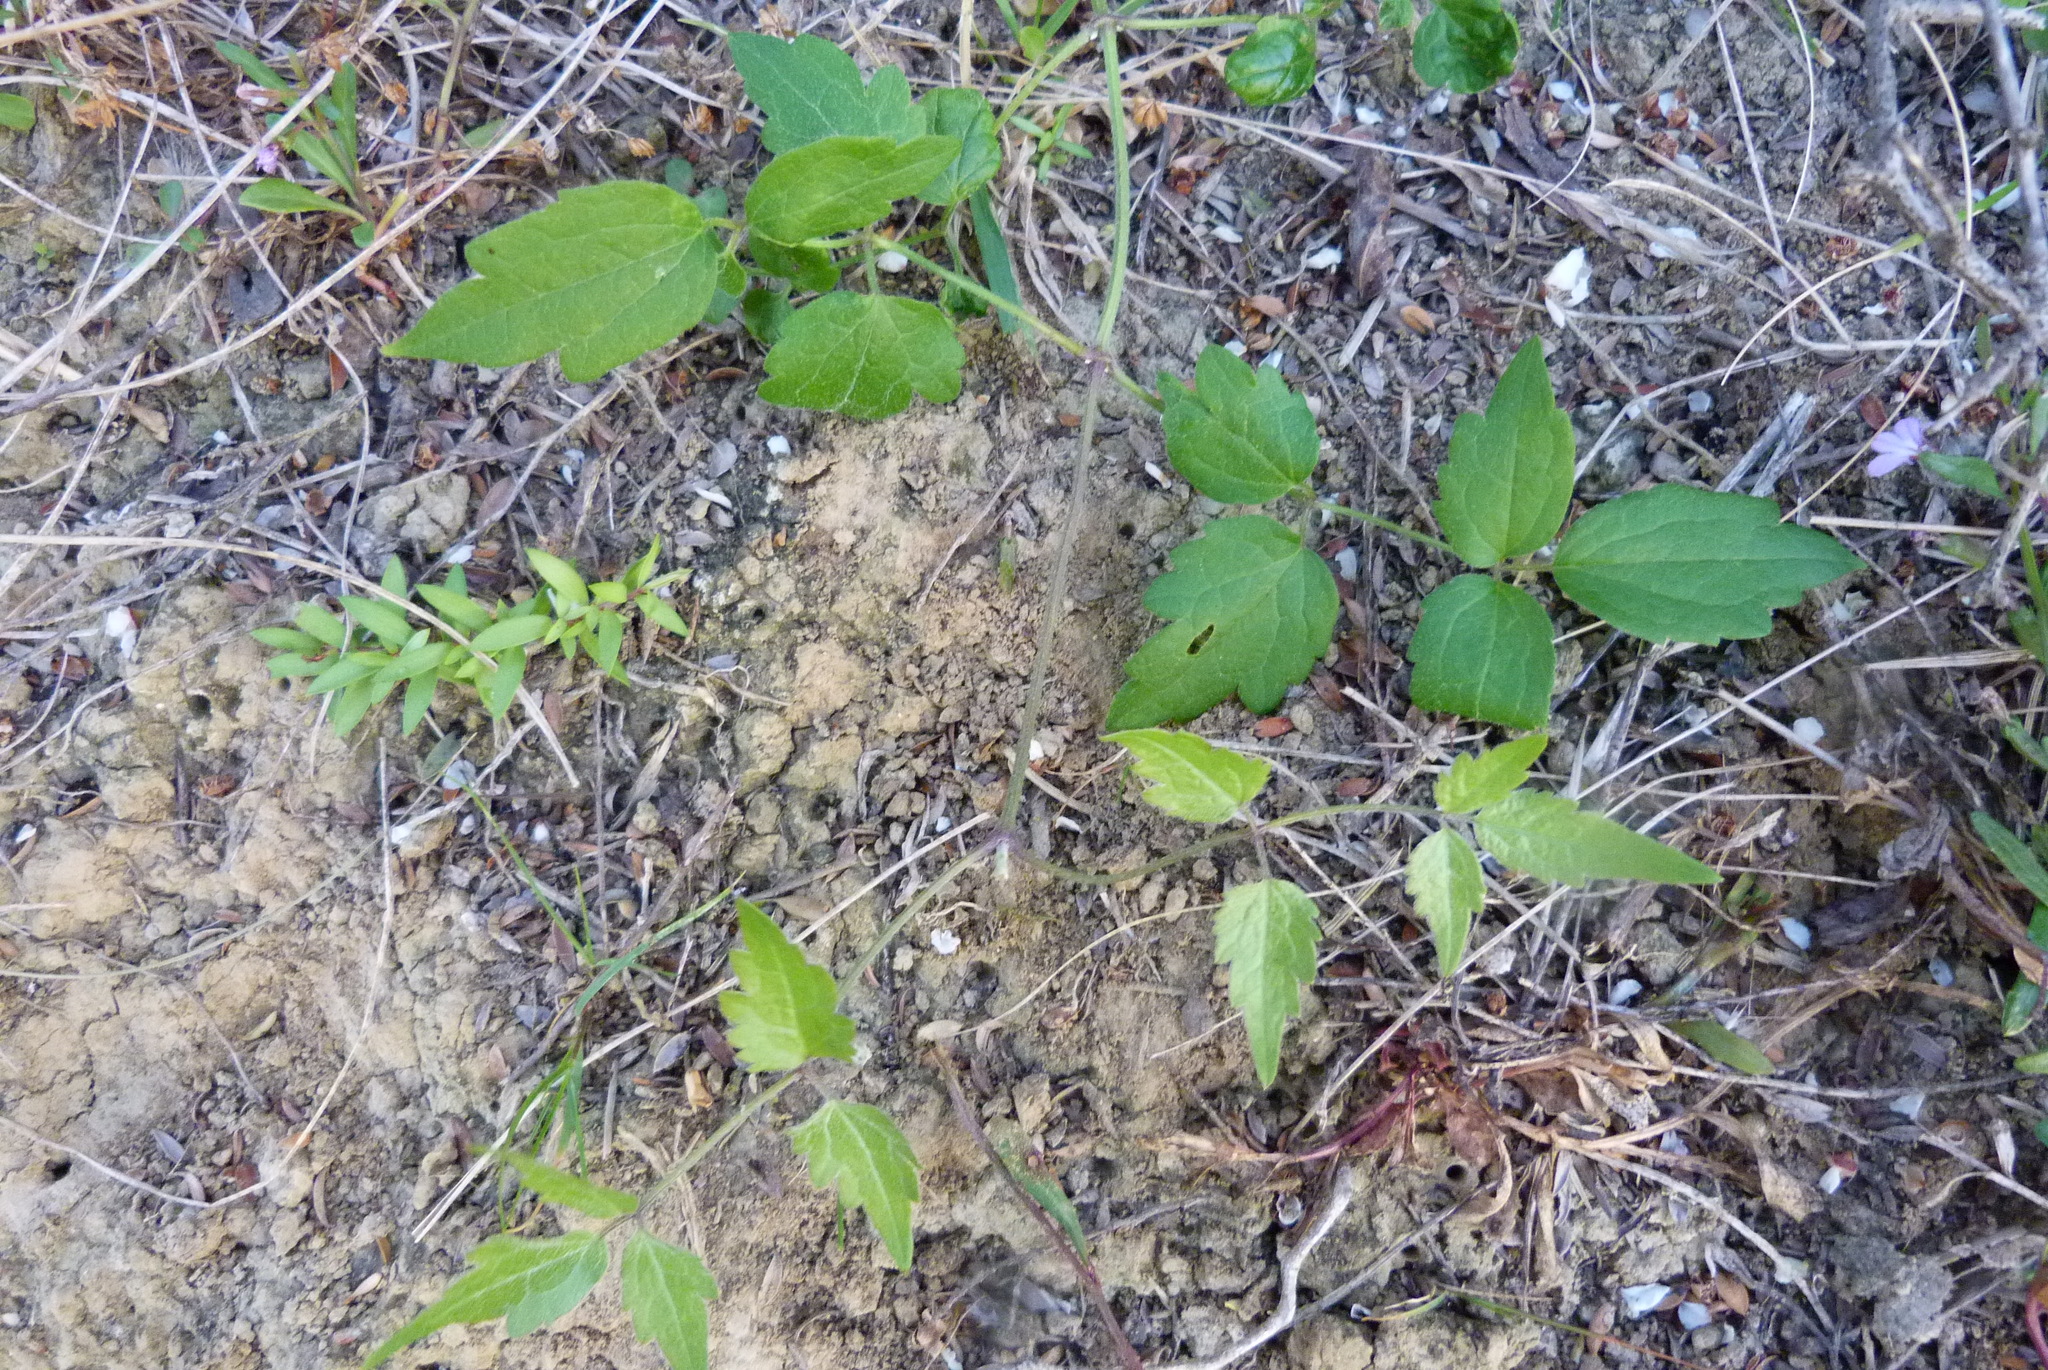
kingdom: Plantae
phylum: Tracheophyta
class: Magnoliopsida
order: Ranunculales
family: Ranunculaceae
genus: Clematis
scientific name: Clematis vitalba
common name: Evergreen clematis
